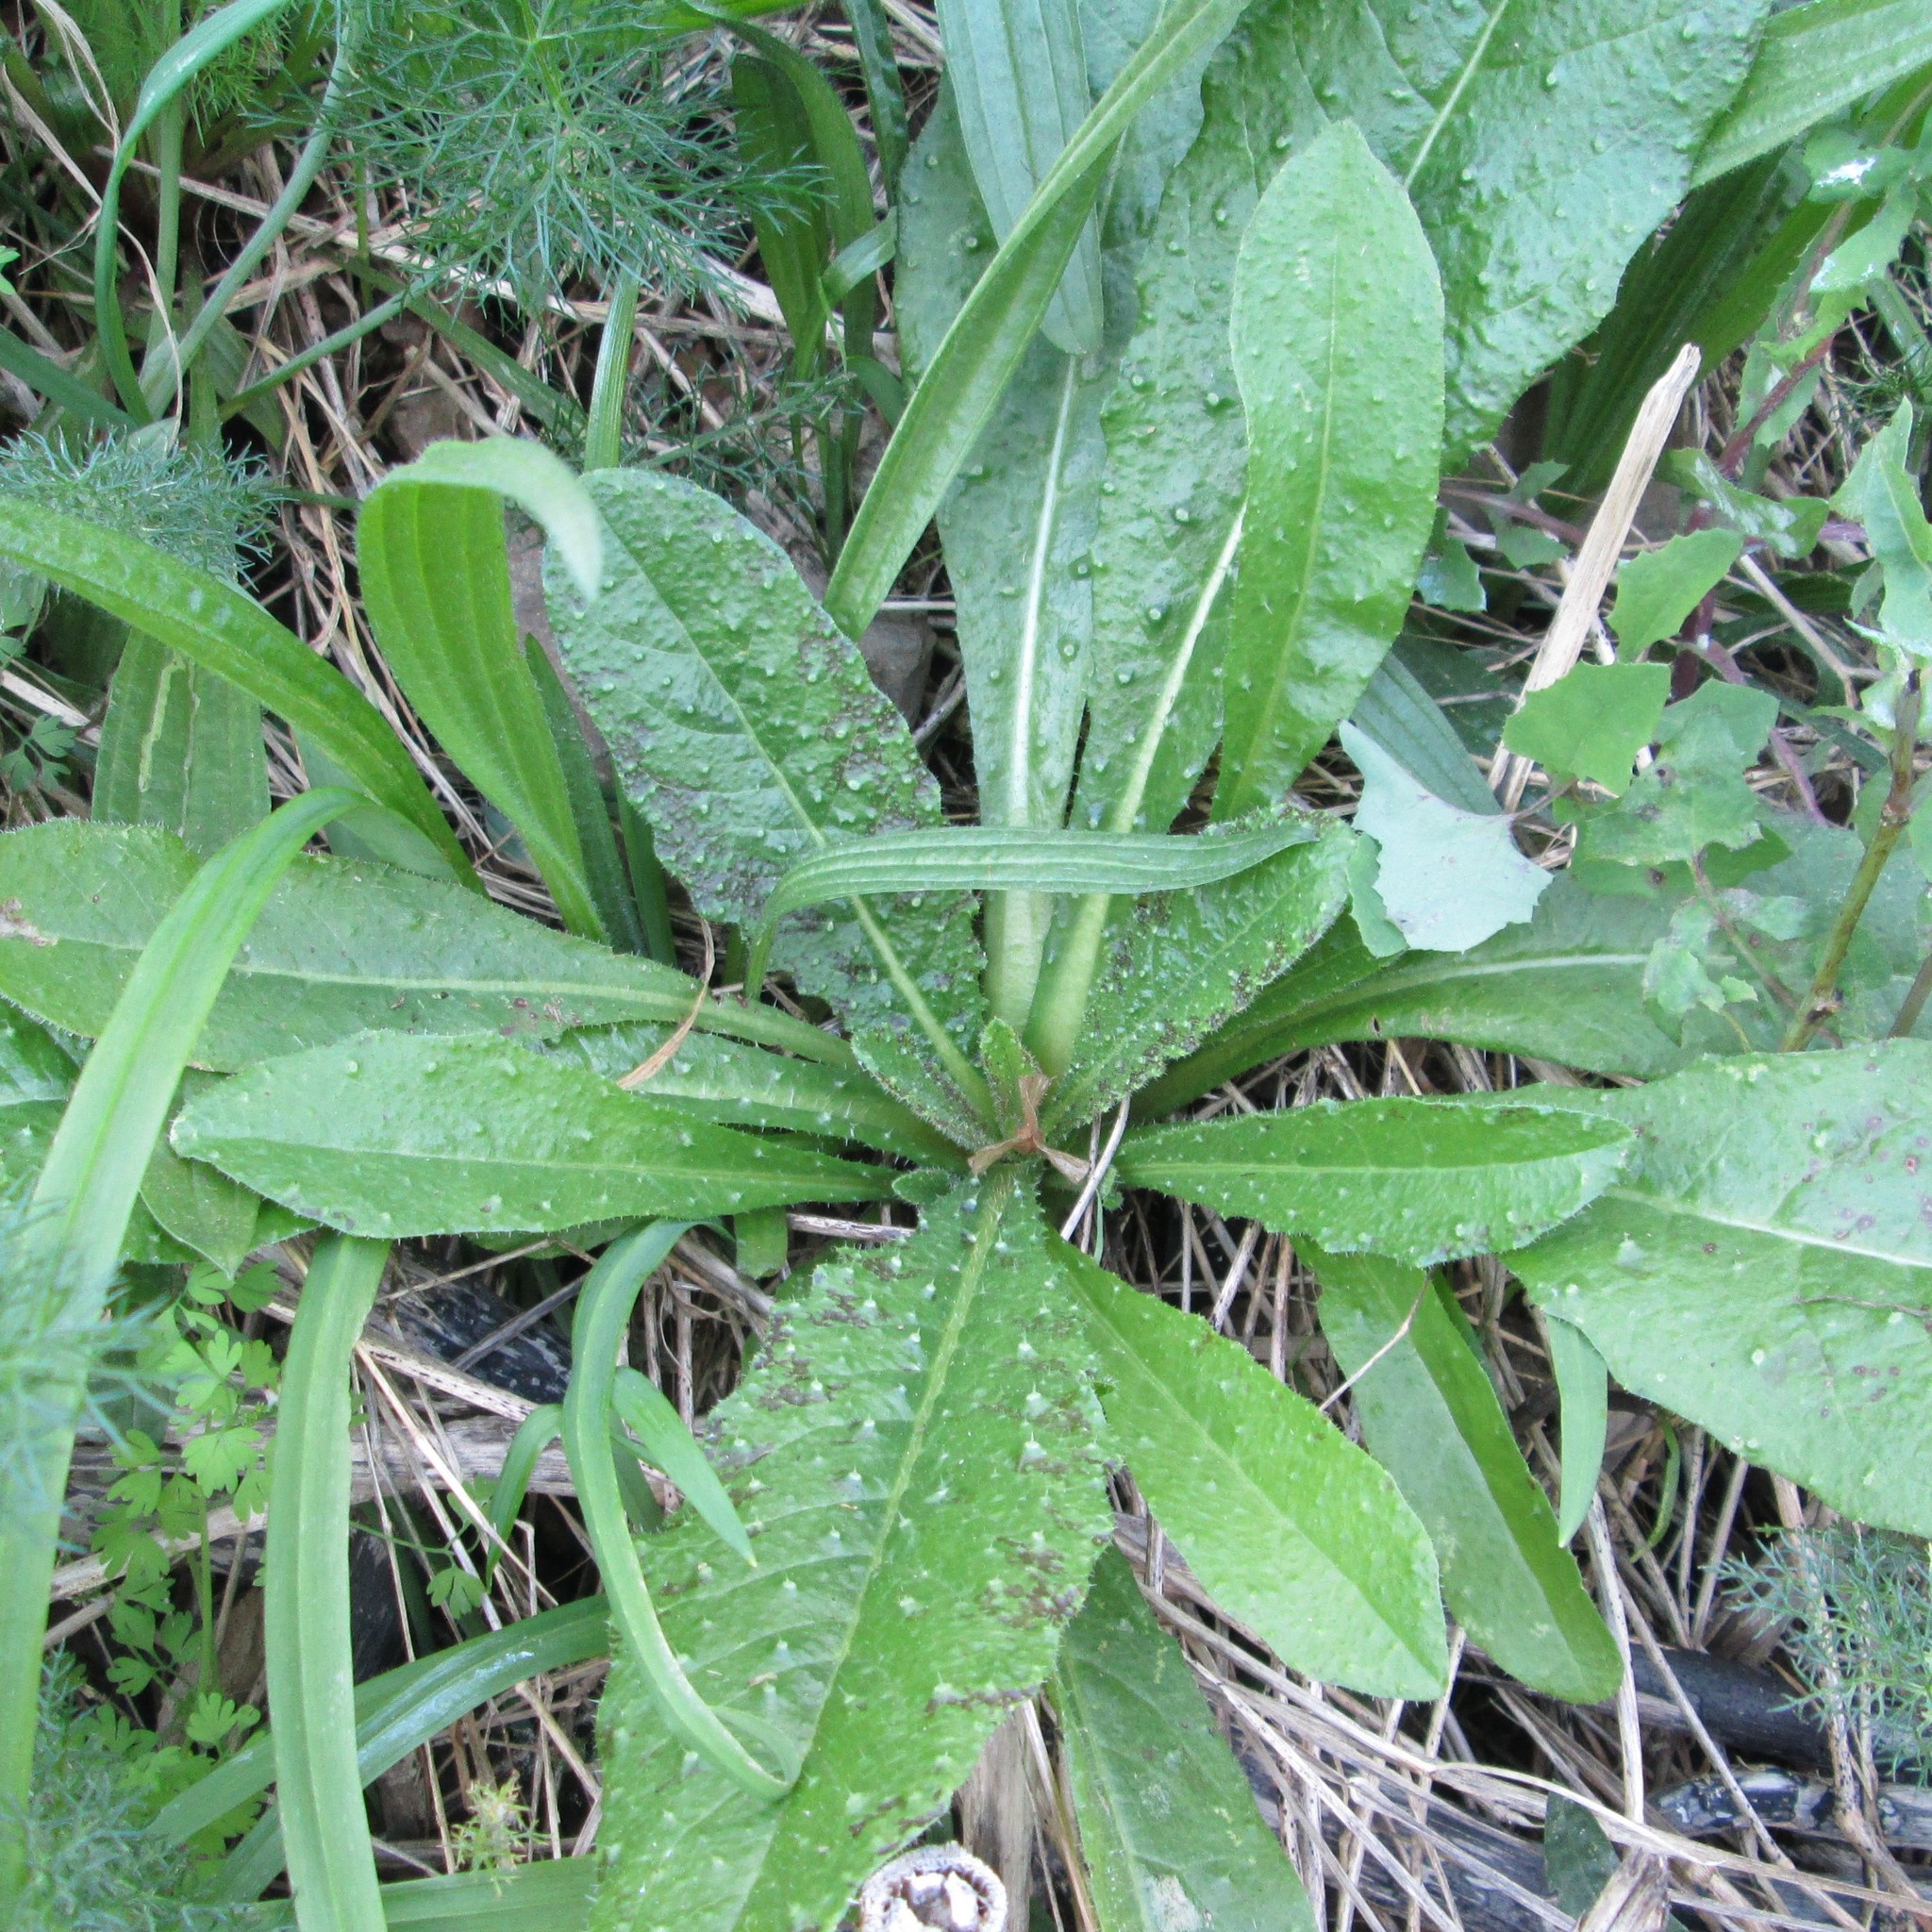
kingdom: Plantae
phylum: Tracheophyta
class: Magnoliopsida
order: Asterales
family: Asteraceae
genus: Helminthotheca
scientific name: Helminthotheca echioides
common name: Ox-tongue
